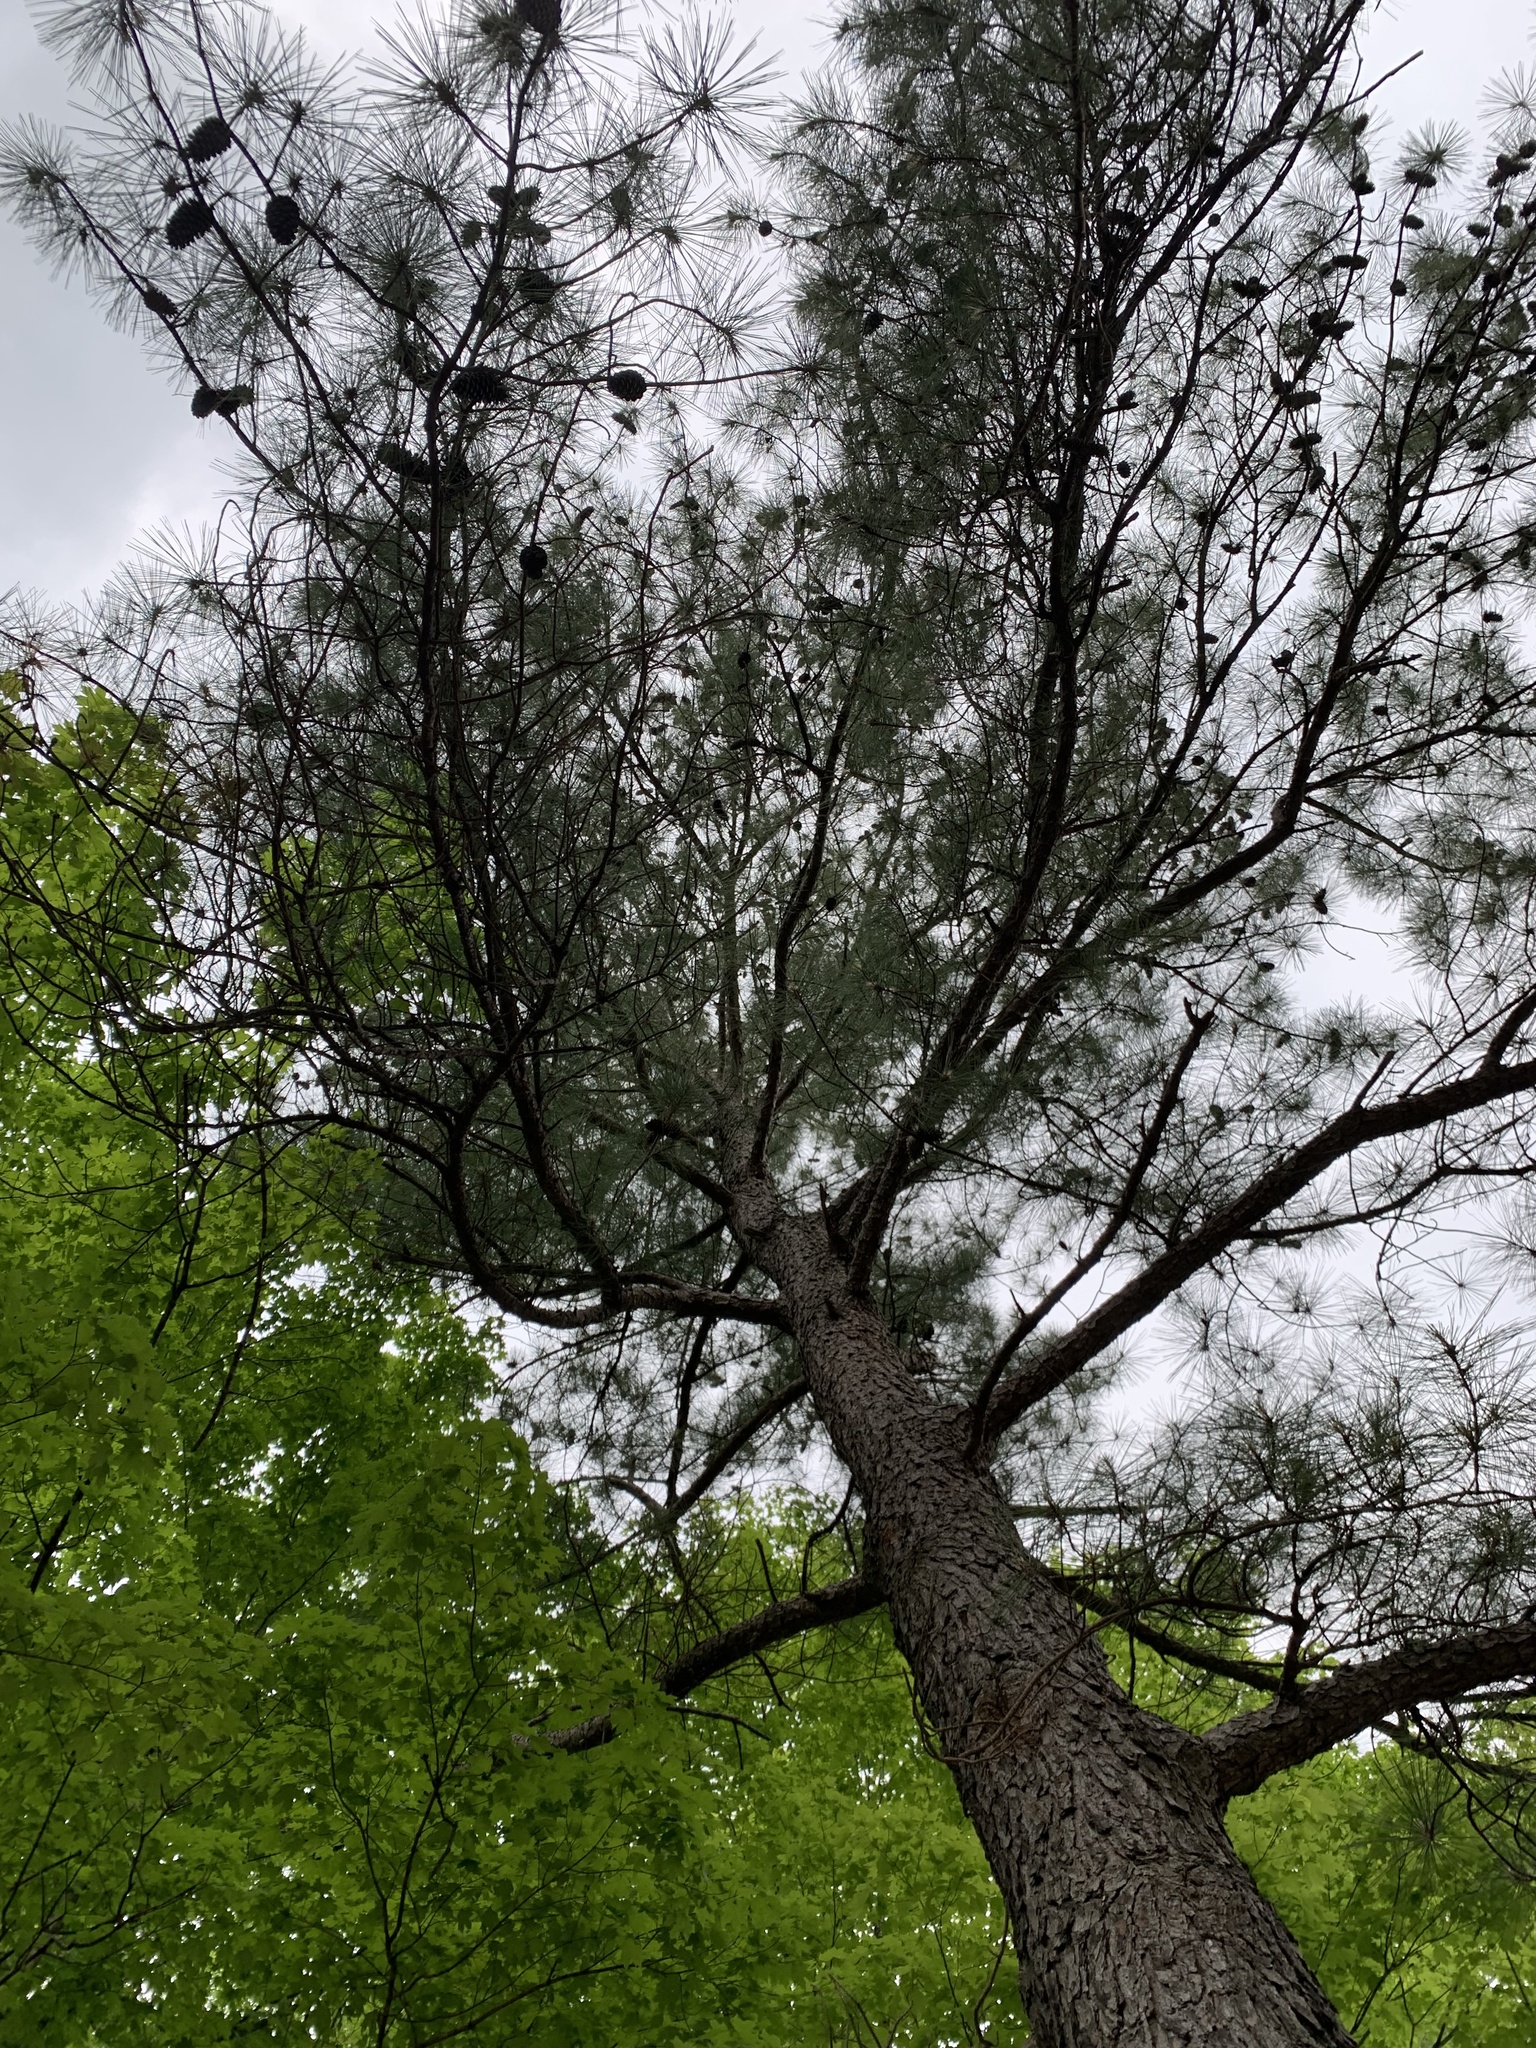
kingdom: Plantae
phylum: Tracheophyta
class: Pinopsida
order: Pinales
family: Pinaceae
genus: Pinus
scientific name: Pinus taeda
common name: Loblolly pine
